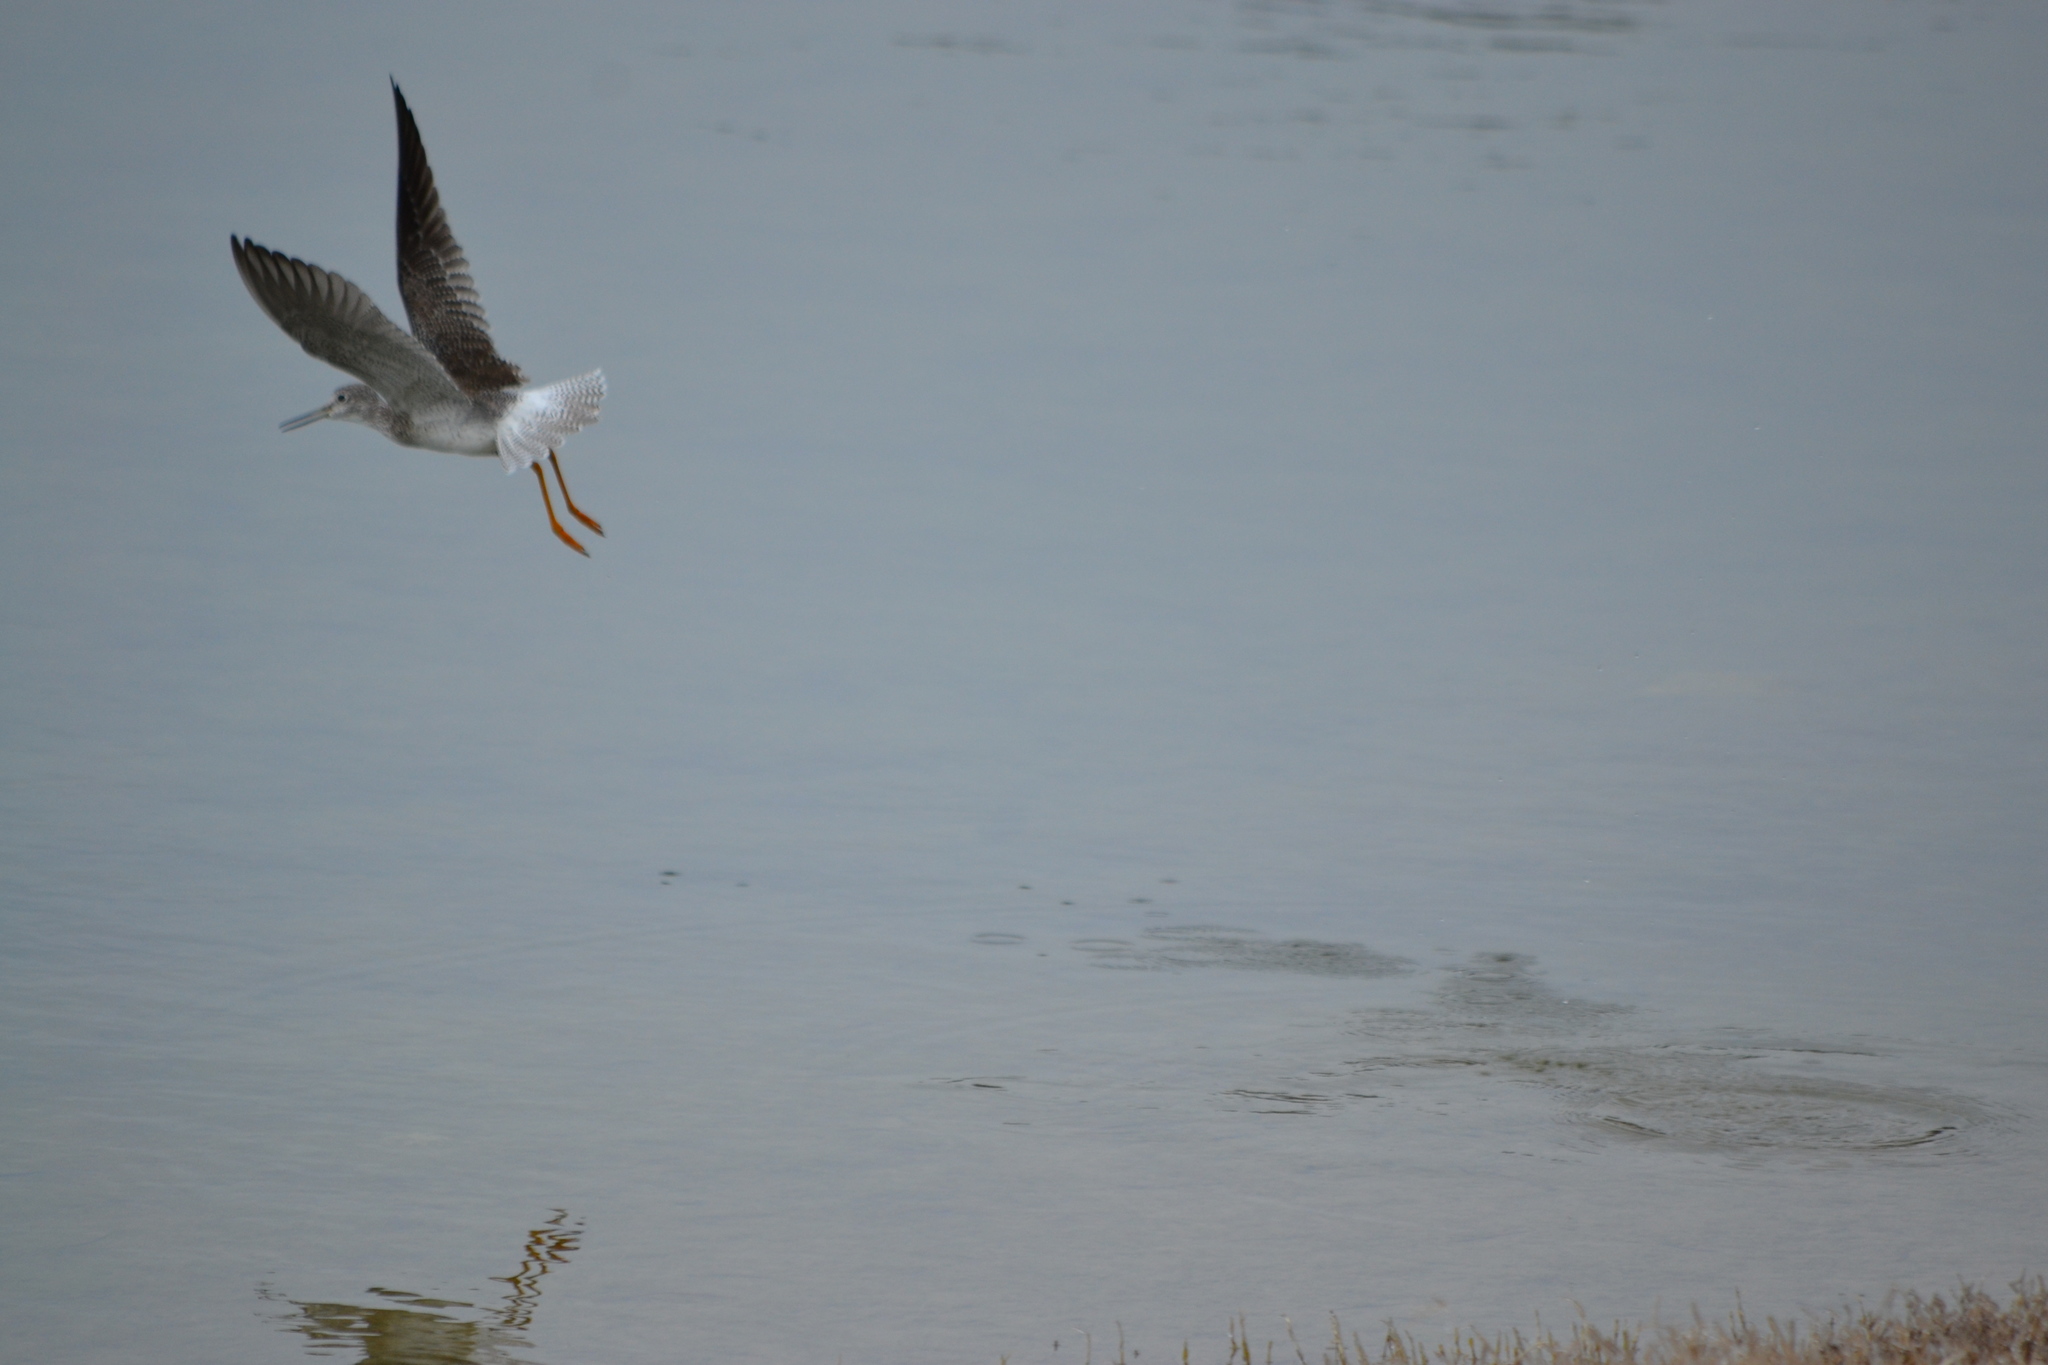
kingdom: Animalia
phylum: Chordata
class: Aves
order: Charadriiformes
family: Scolopacidae
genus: Tringa
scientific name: Tringa melanoleuca
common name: Greater yellowlegs
